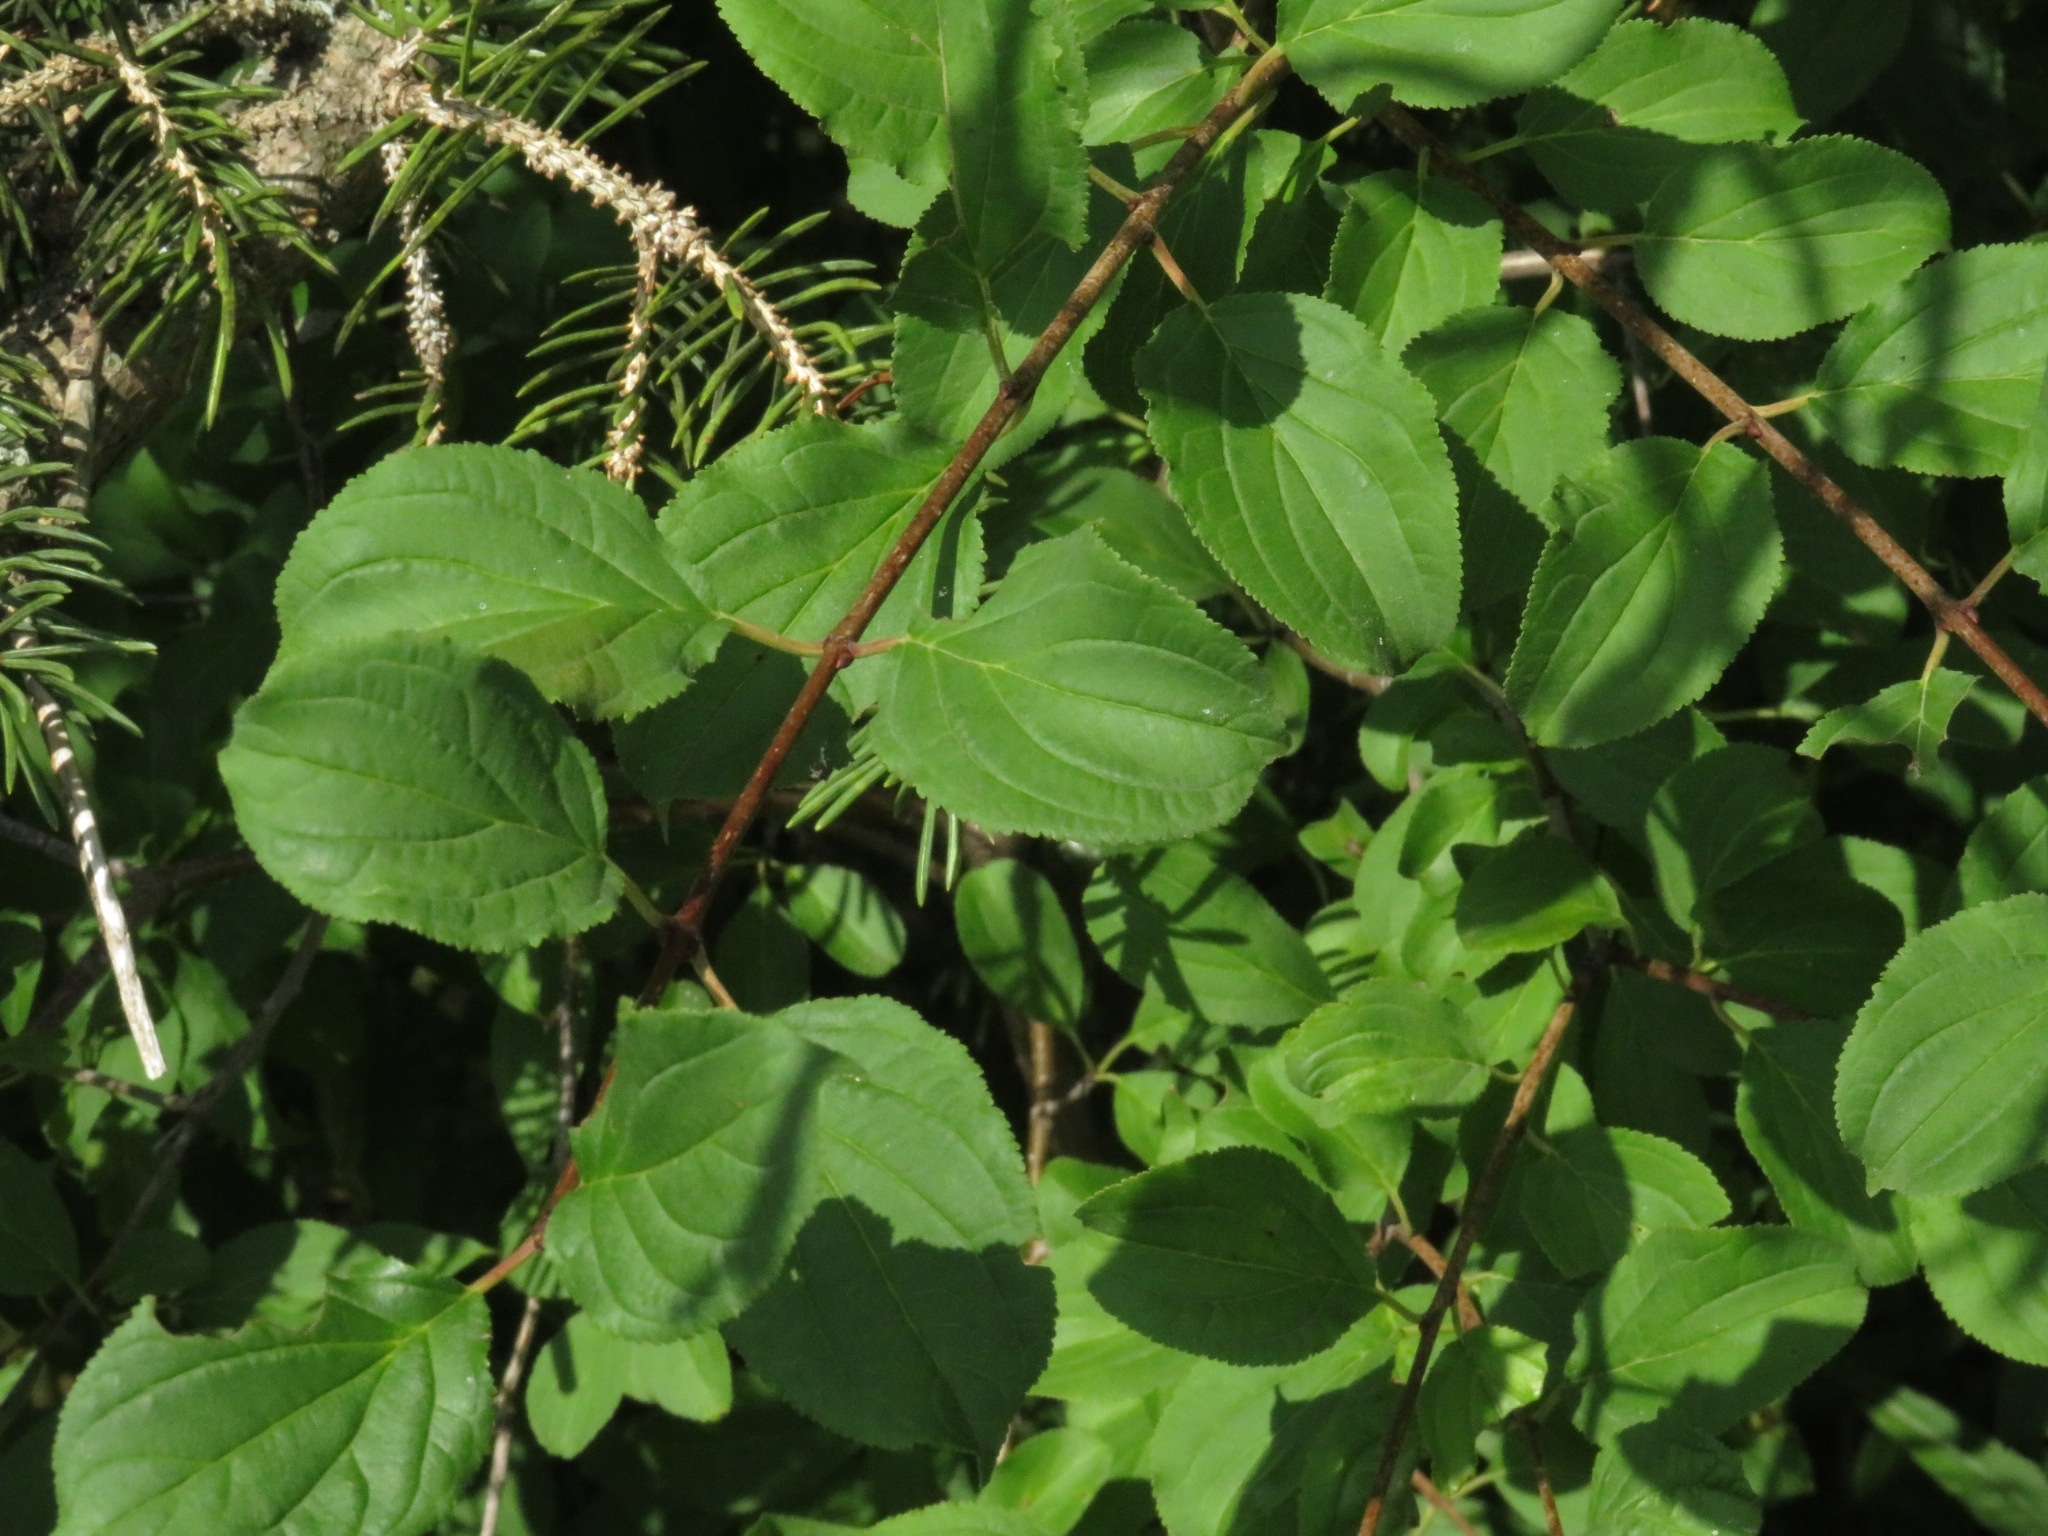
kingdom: Plantae
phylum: Tracheophyta
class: Magnoliopsida
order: Rosales
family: Rhamnaceae
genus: Rhamnus
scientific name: Rhamnus cathartica
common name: Common buckthorn
